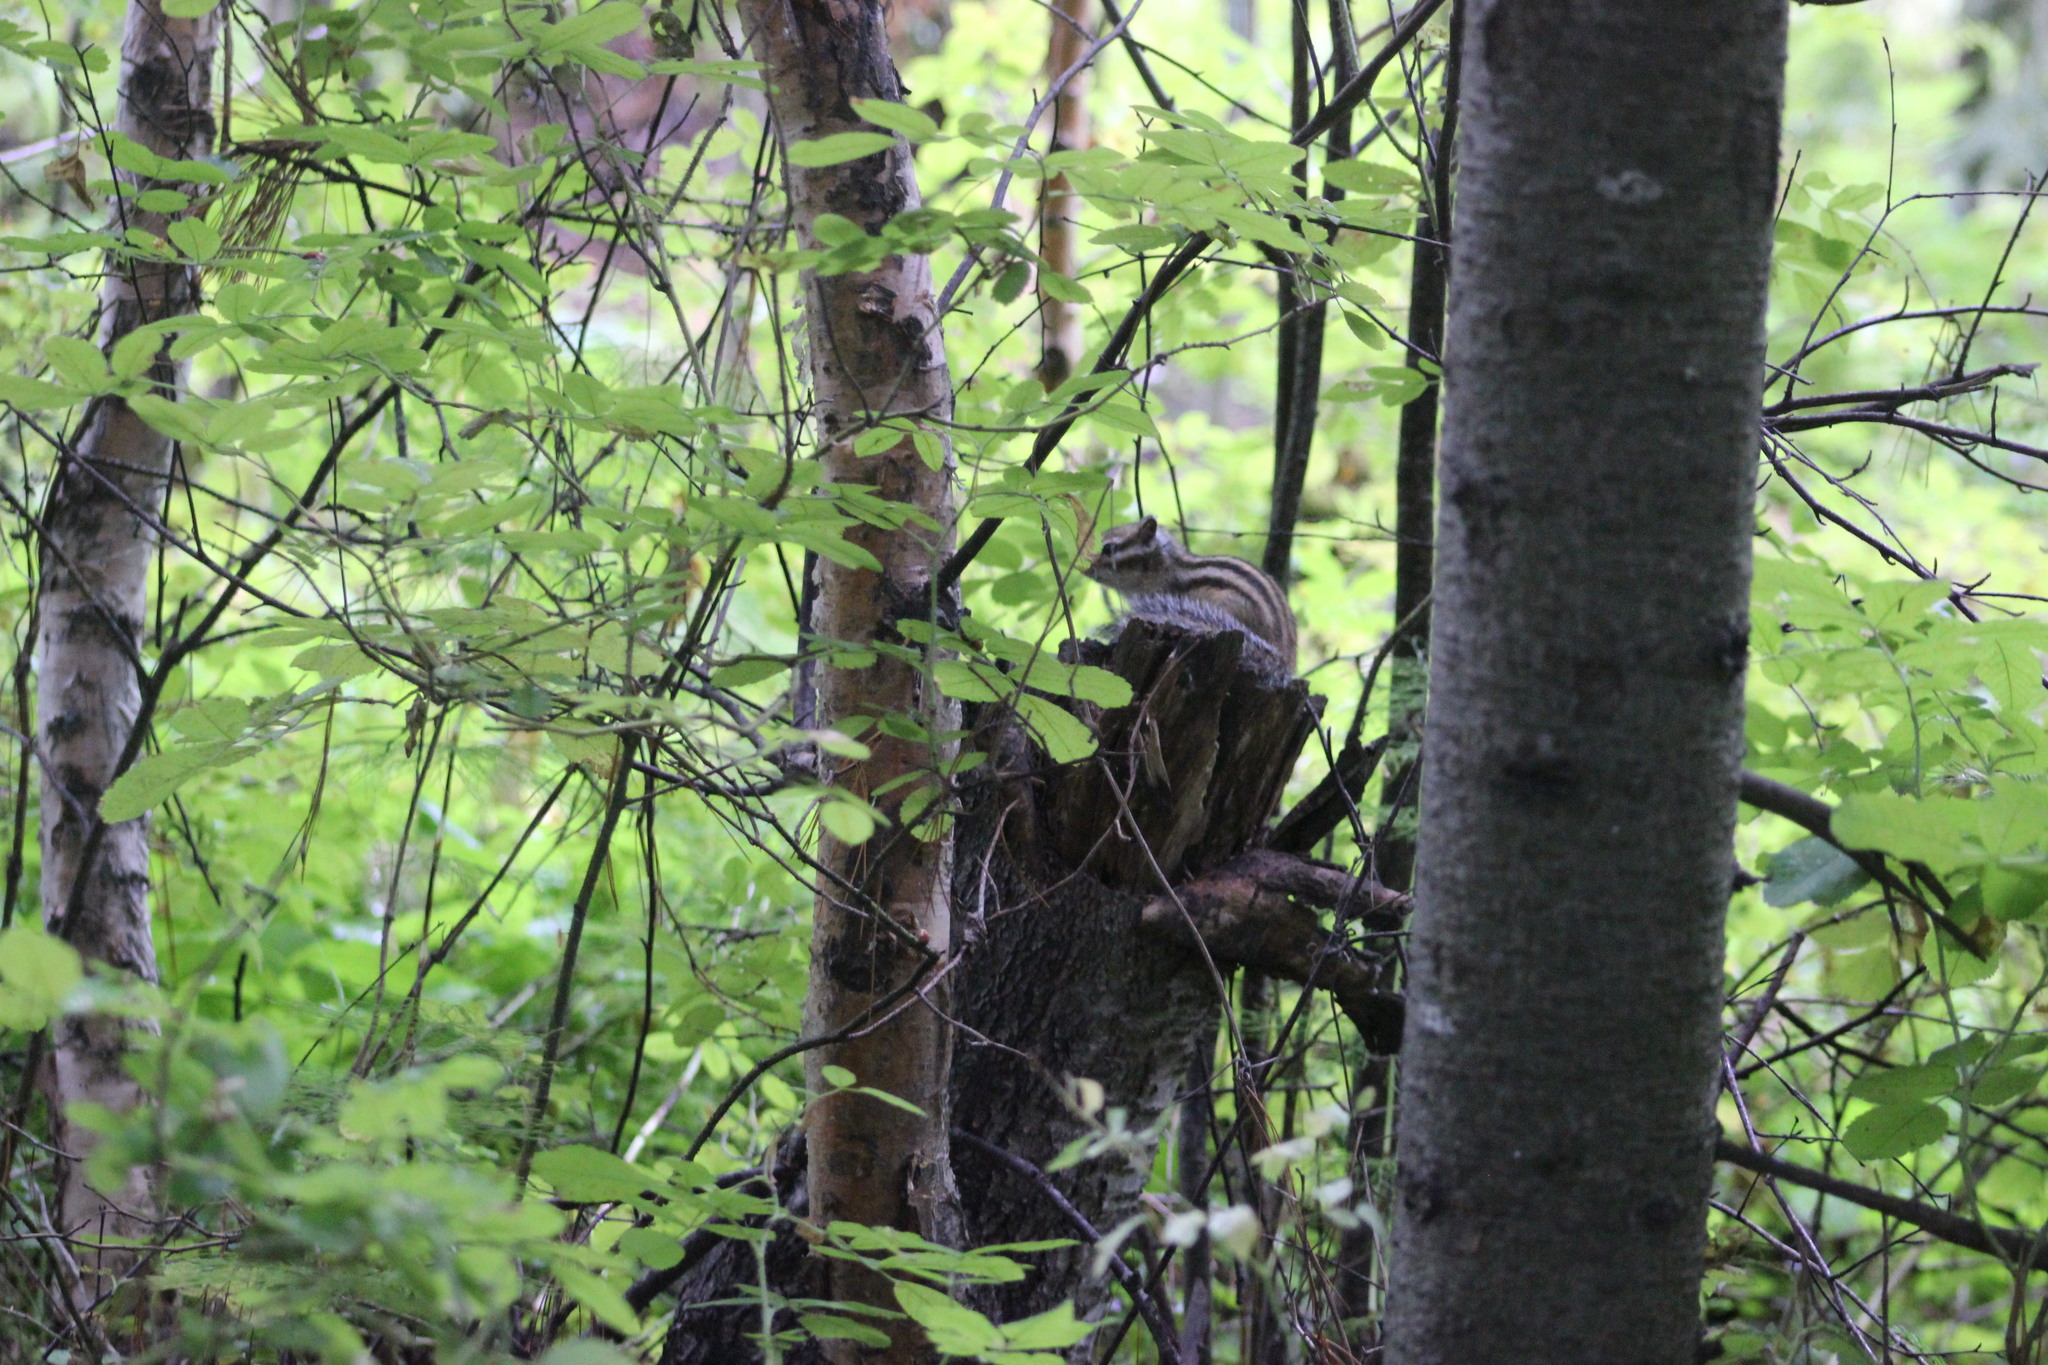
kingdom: Animalia
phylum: Chordata
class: Mammalia
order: Rodentia
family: Sciuridae
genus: Tamias
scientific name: Tamias sibiricus
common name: Siberian chipmunk
